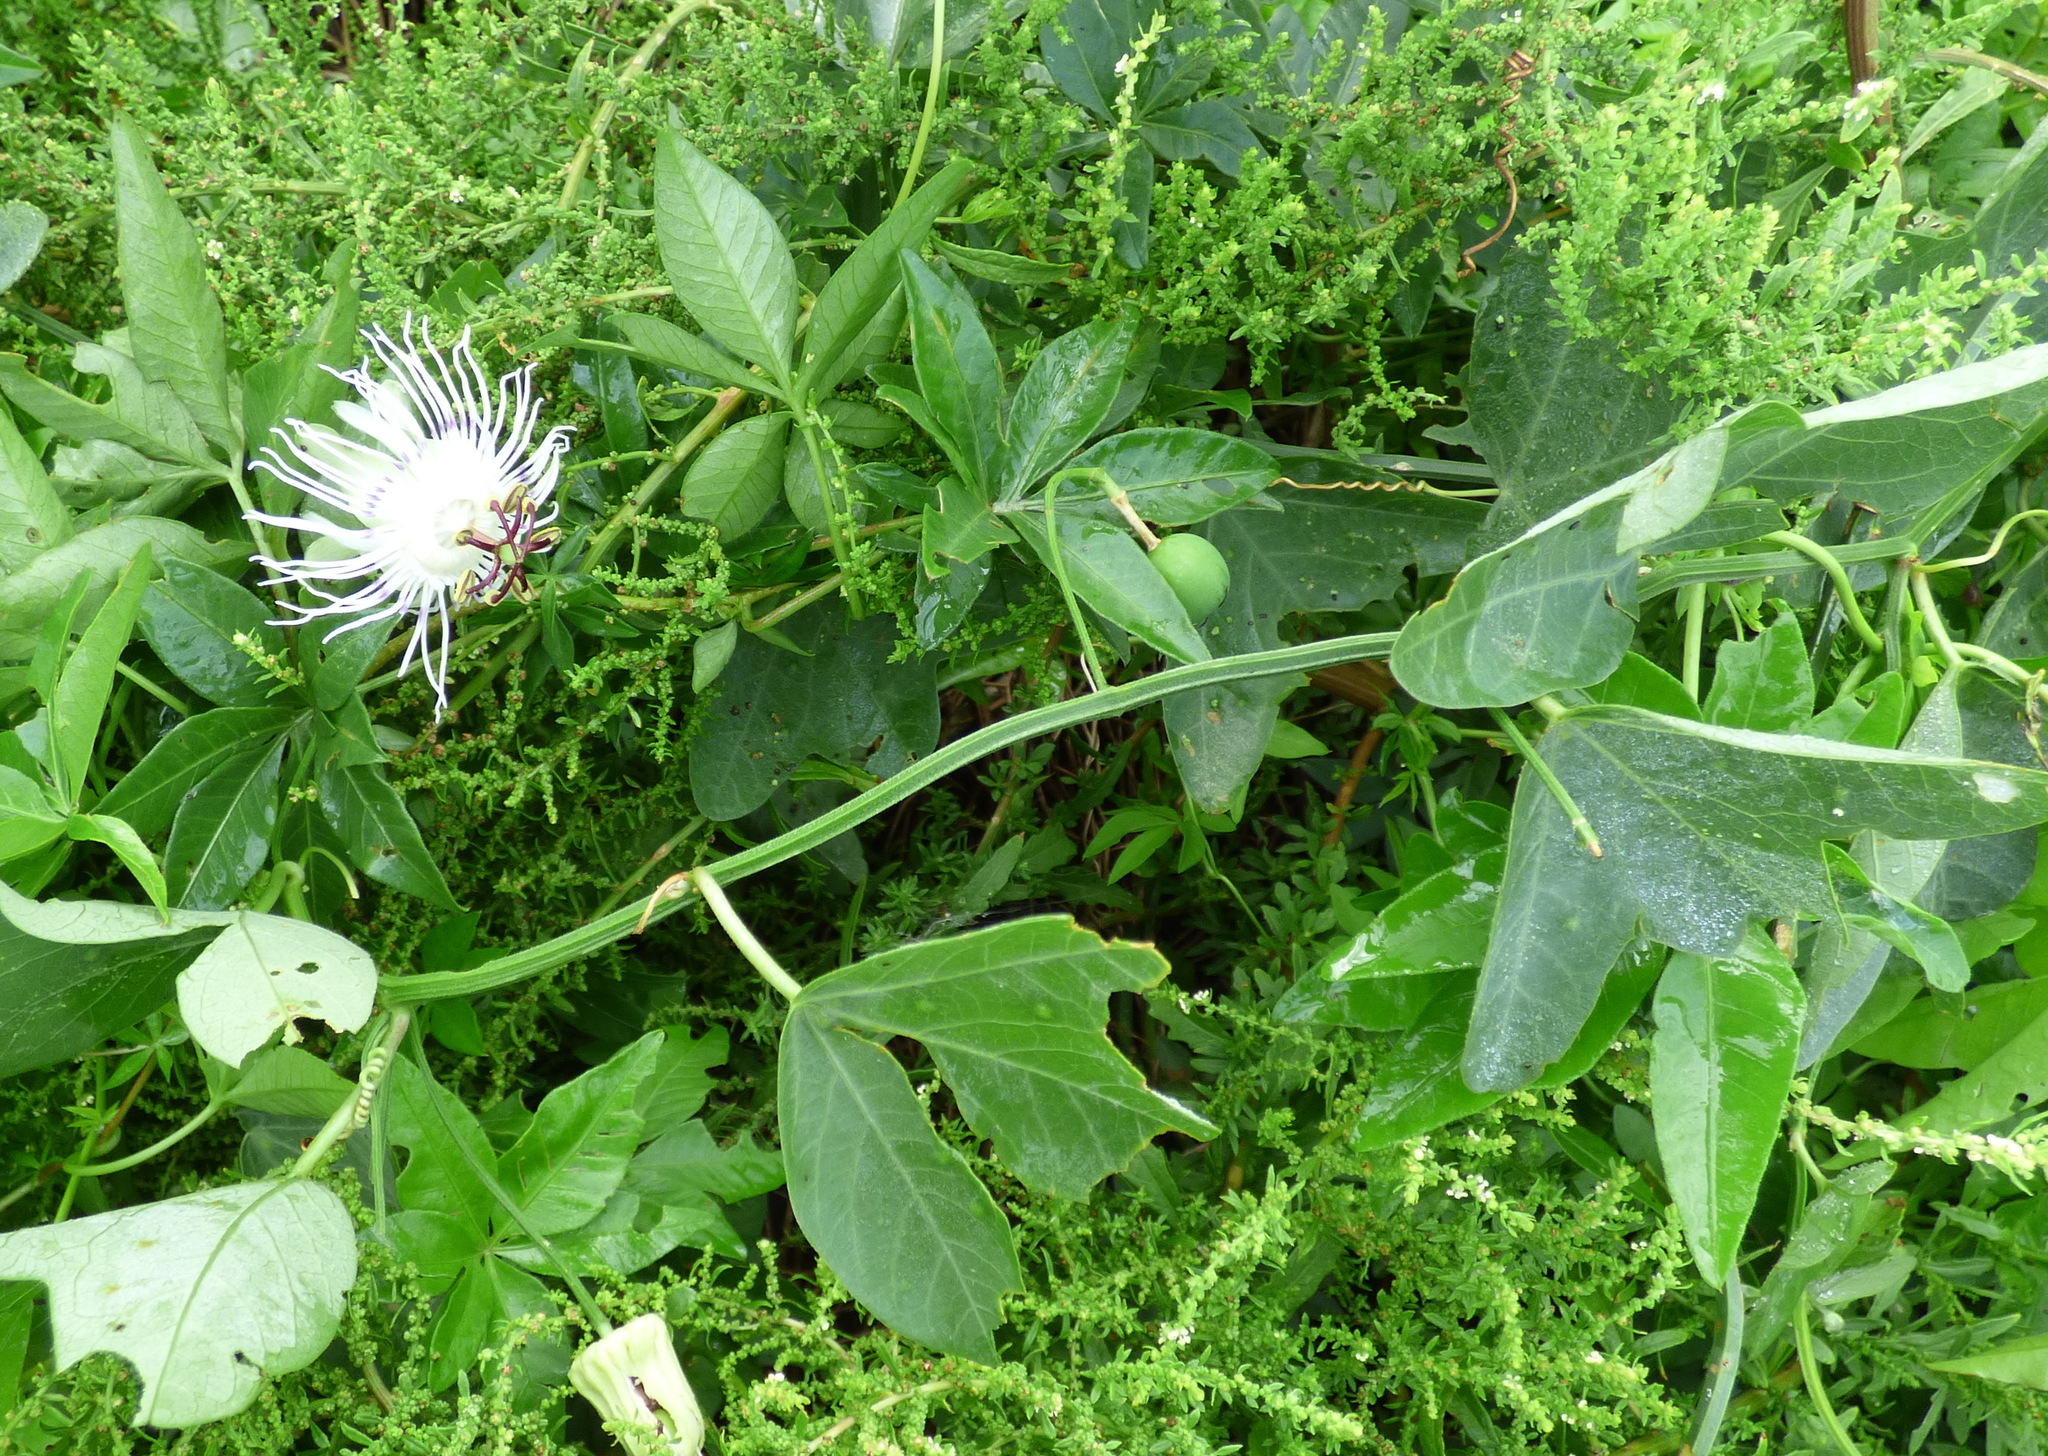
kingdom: Plantae
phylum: Tracheophyta
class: Magnoliopsida
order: Malpighiales
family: Passifloraceae
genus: Passiflora
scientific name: Passiflora misera
